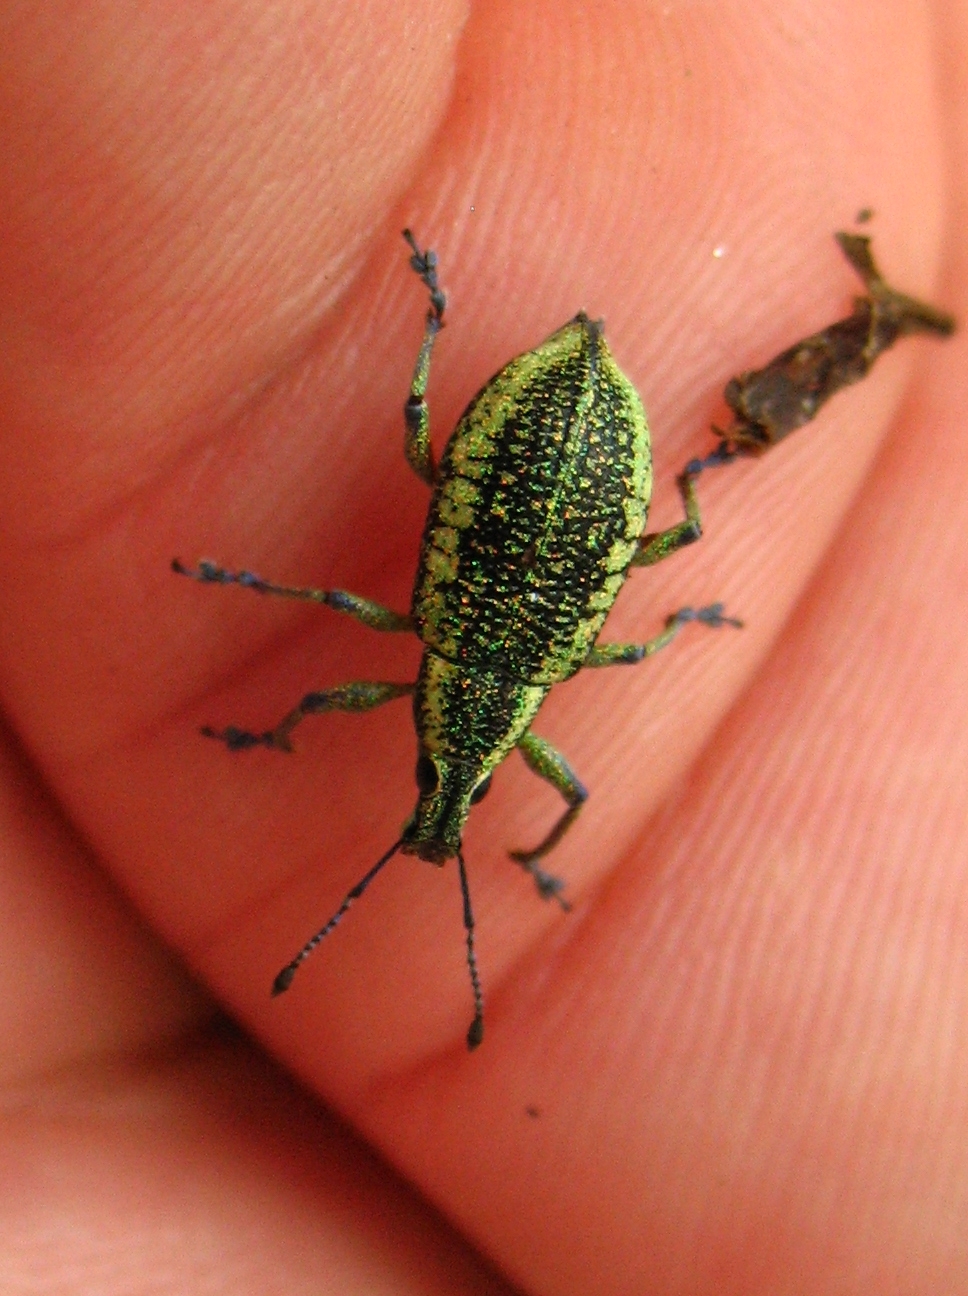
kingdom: Animalia
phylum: Arthropoda
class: Insecta
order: Coleoptera
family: Curculionidae
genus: Exophthalmus
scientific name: Exophthalmus sulcicrus
